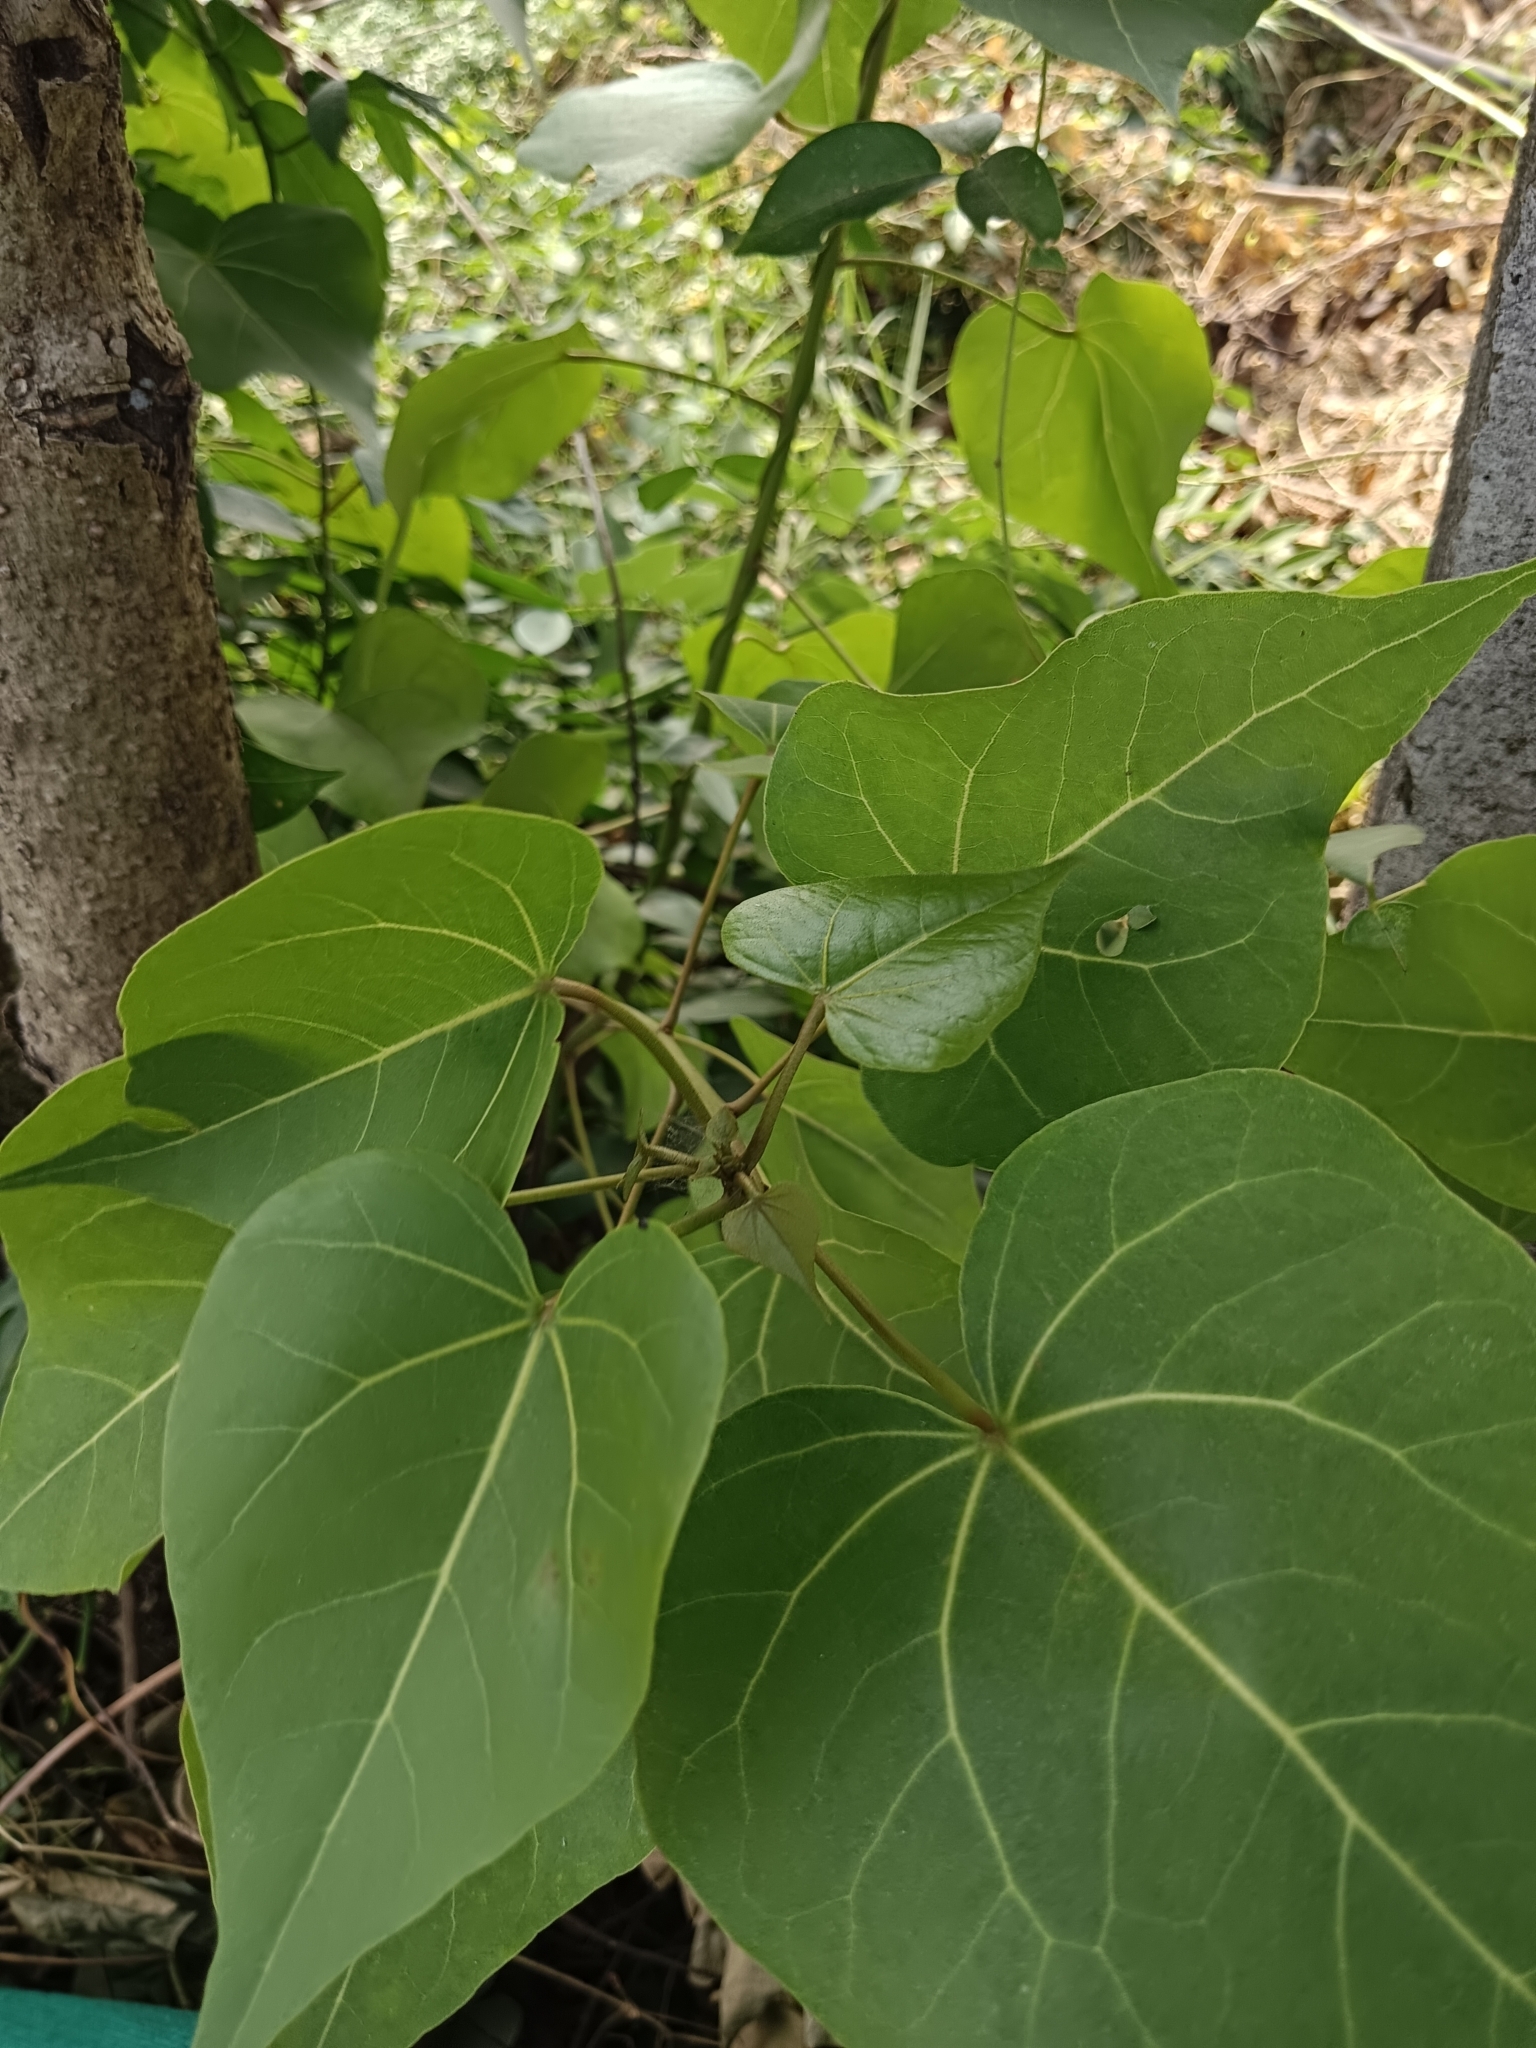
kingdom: Plantae
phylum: Tracheophyta
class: Magnoliopsida
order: Malvales
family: Malvaceae
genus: Thespesia
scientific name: Thespesia populnea
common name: Seaside mahoe
